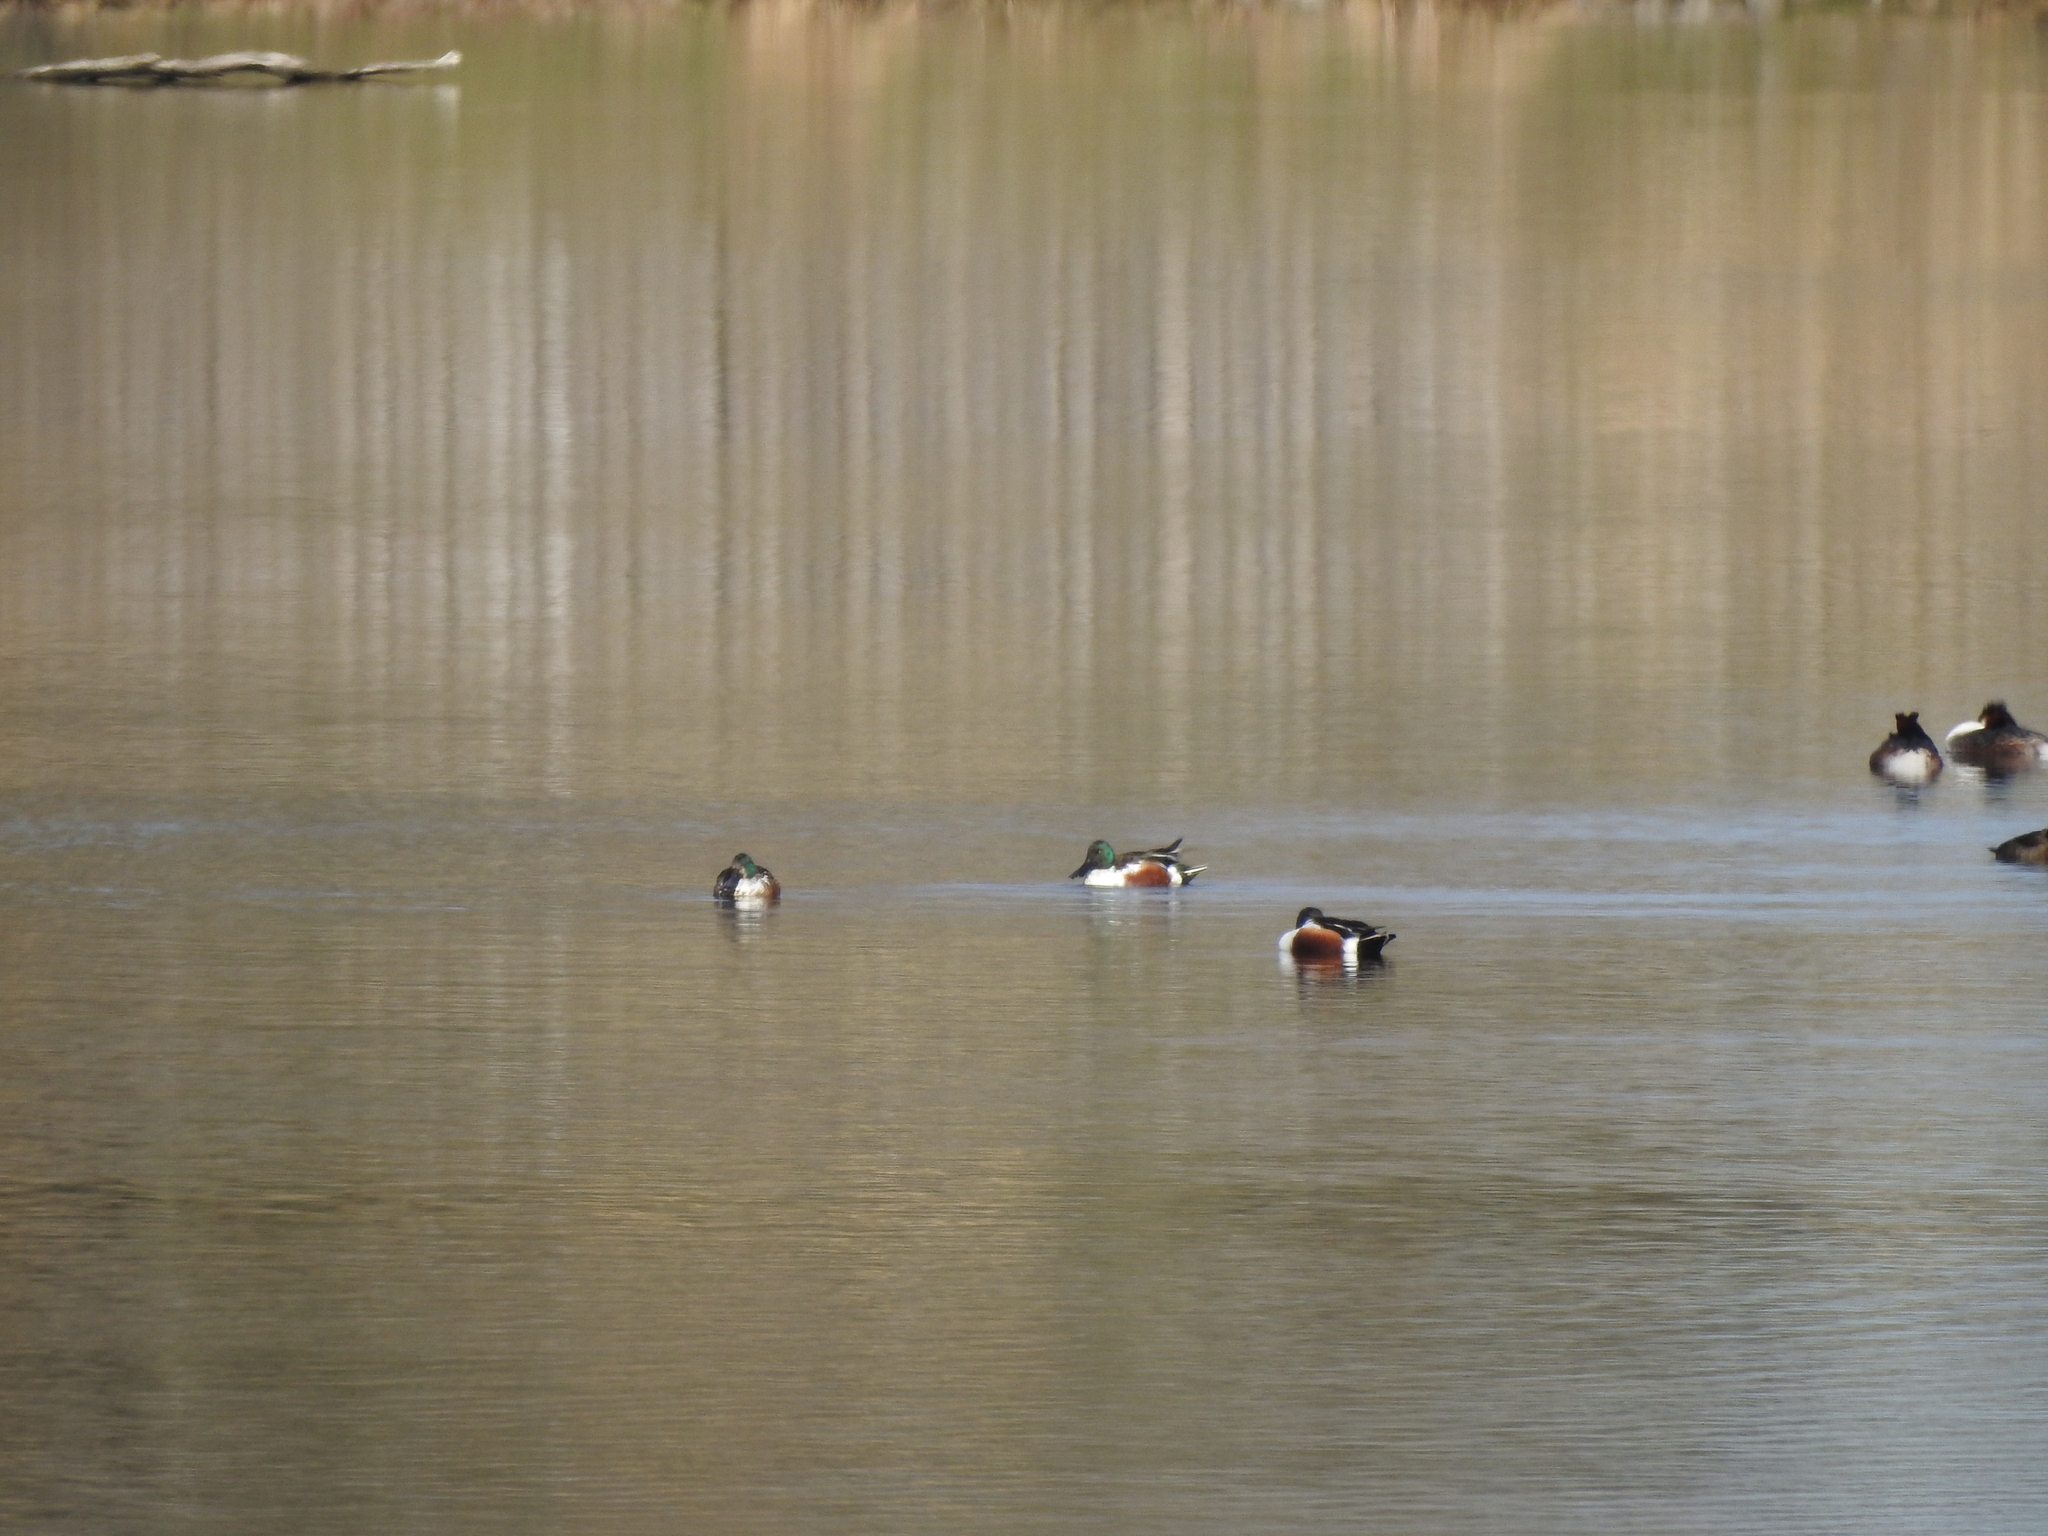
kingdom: Animalia
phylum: Chordata
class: Aves
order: Anseriformes
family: Anatidae
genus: Spatula
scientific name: Spatula clypeata
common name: Northern shoveler
